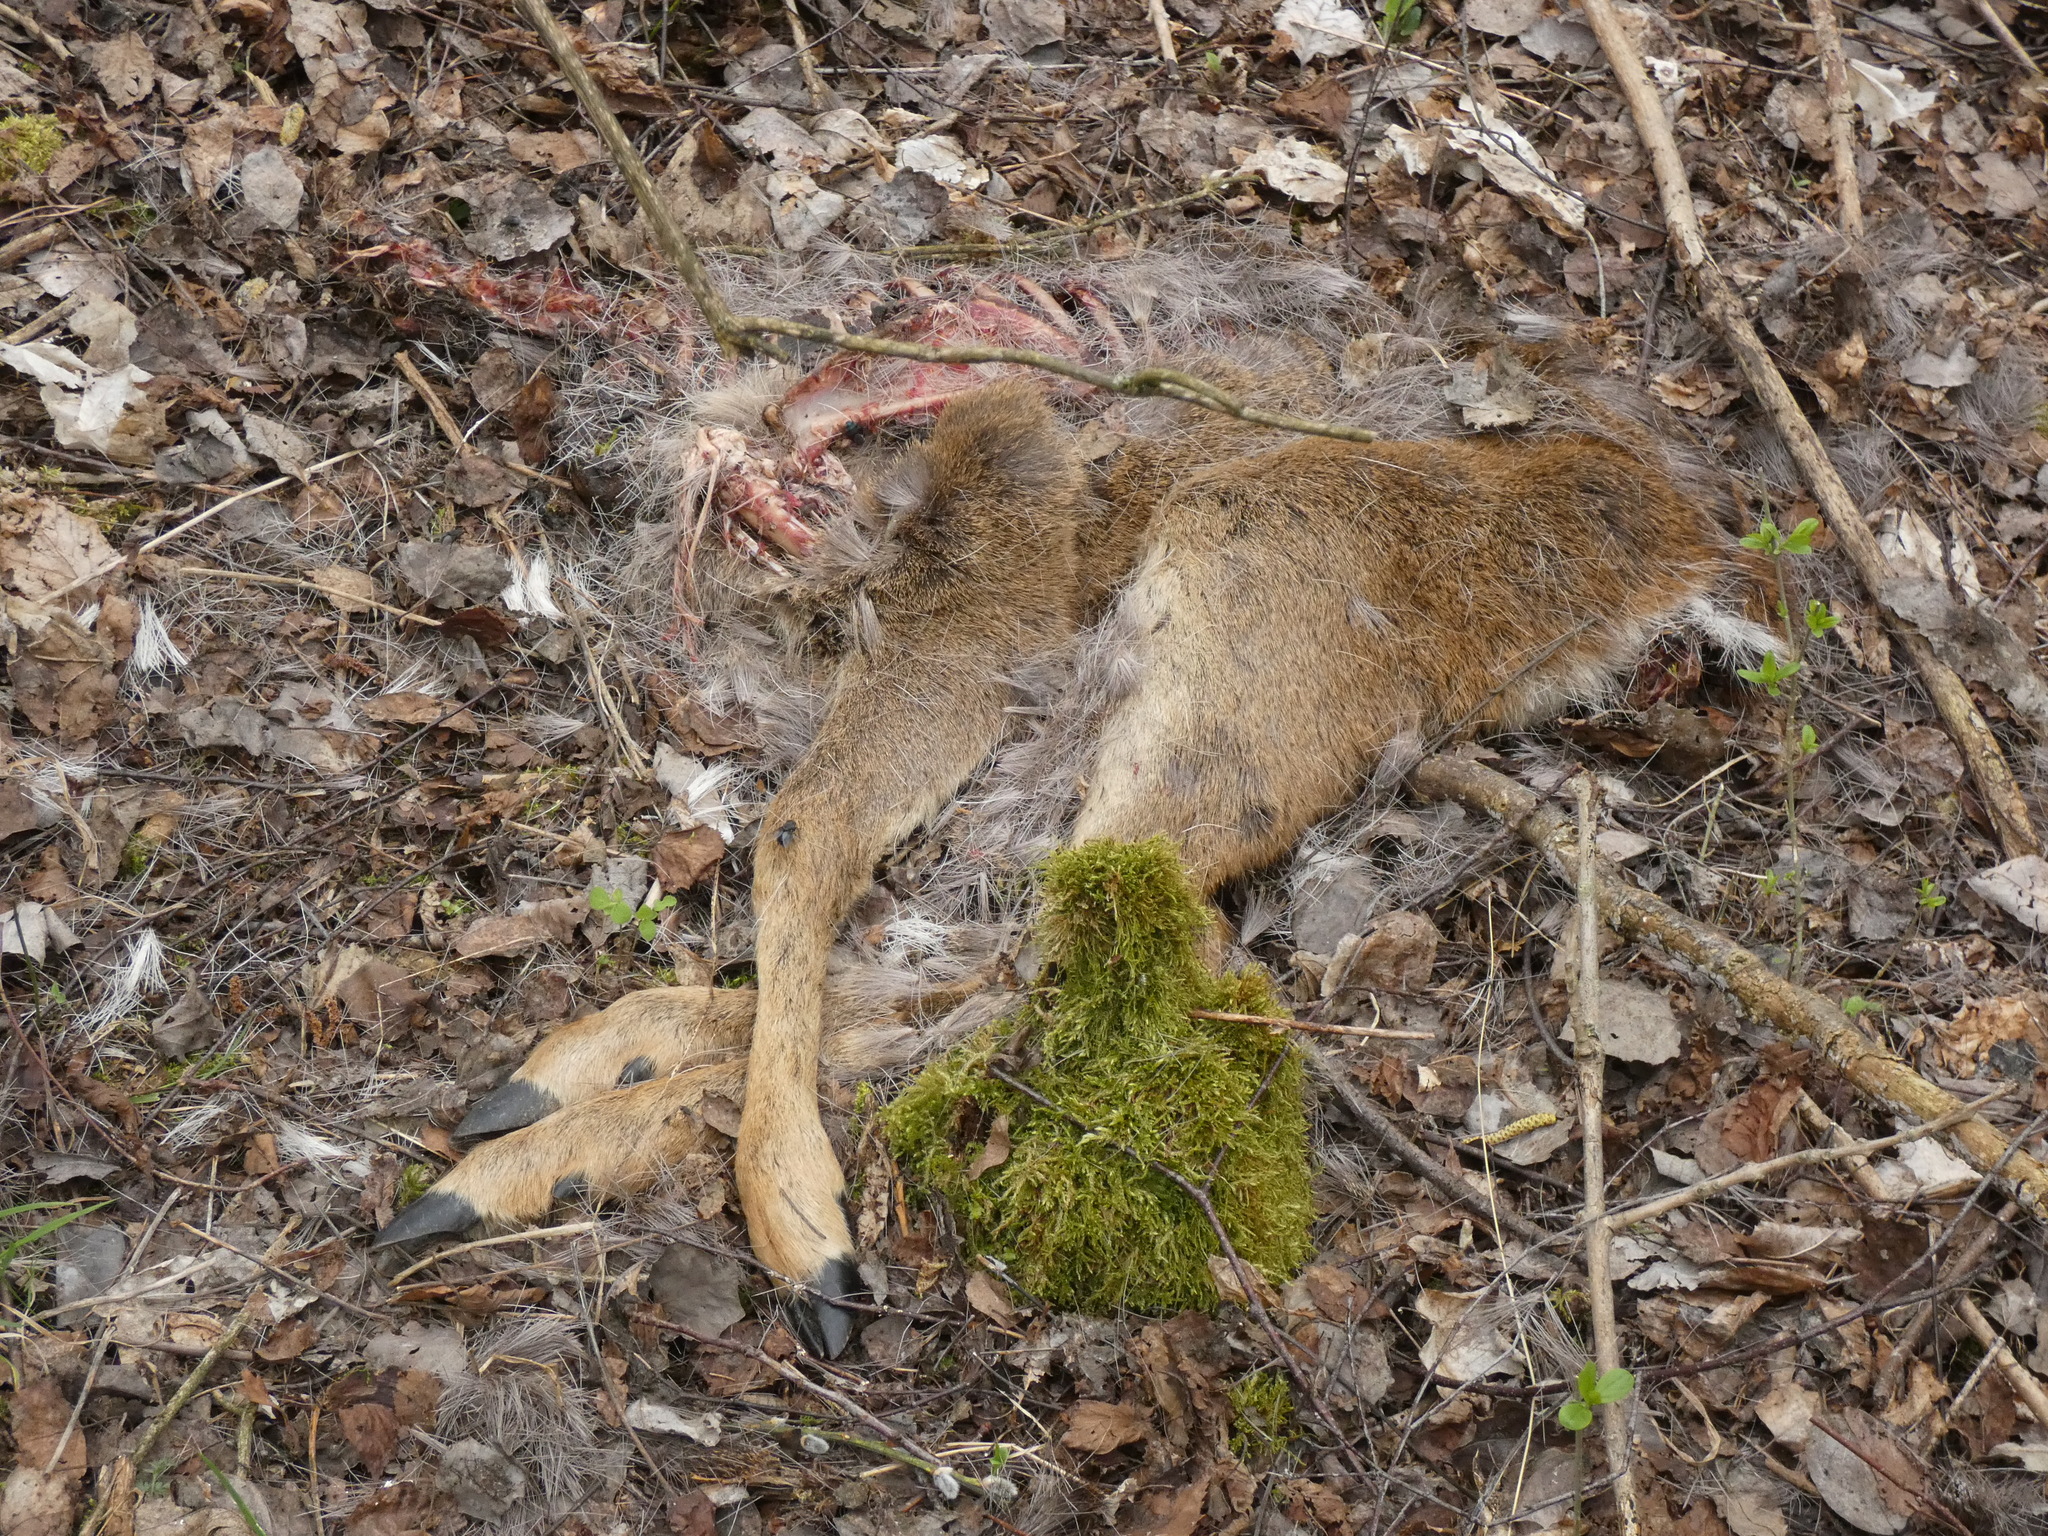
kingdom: Animalia
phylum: Chordata
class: Mammalia
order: Artiodactyla
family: Cervidae
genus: Capreolus
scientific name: Capreolus capreolus
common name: Western roe deer
